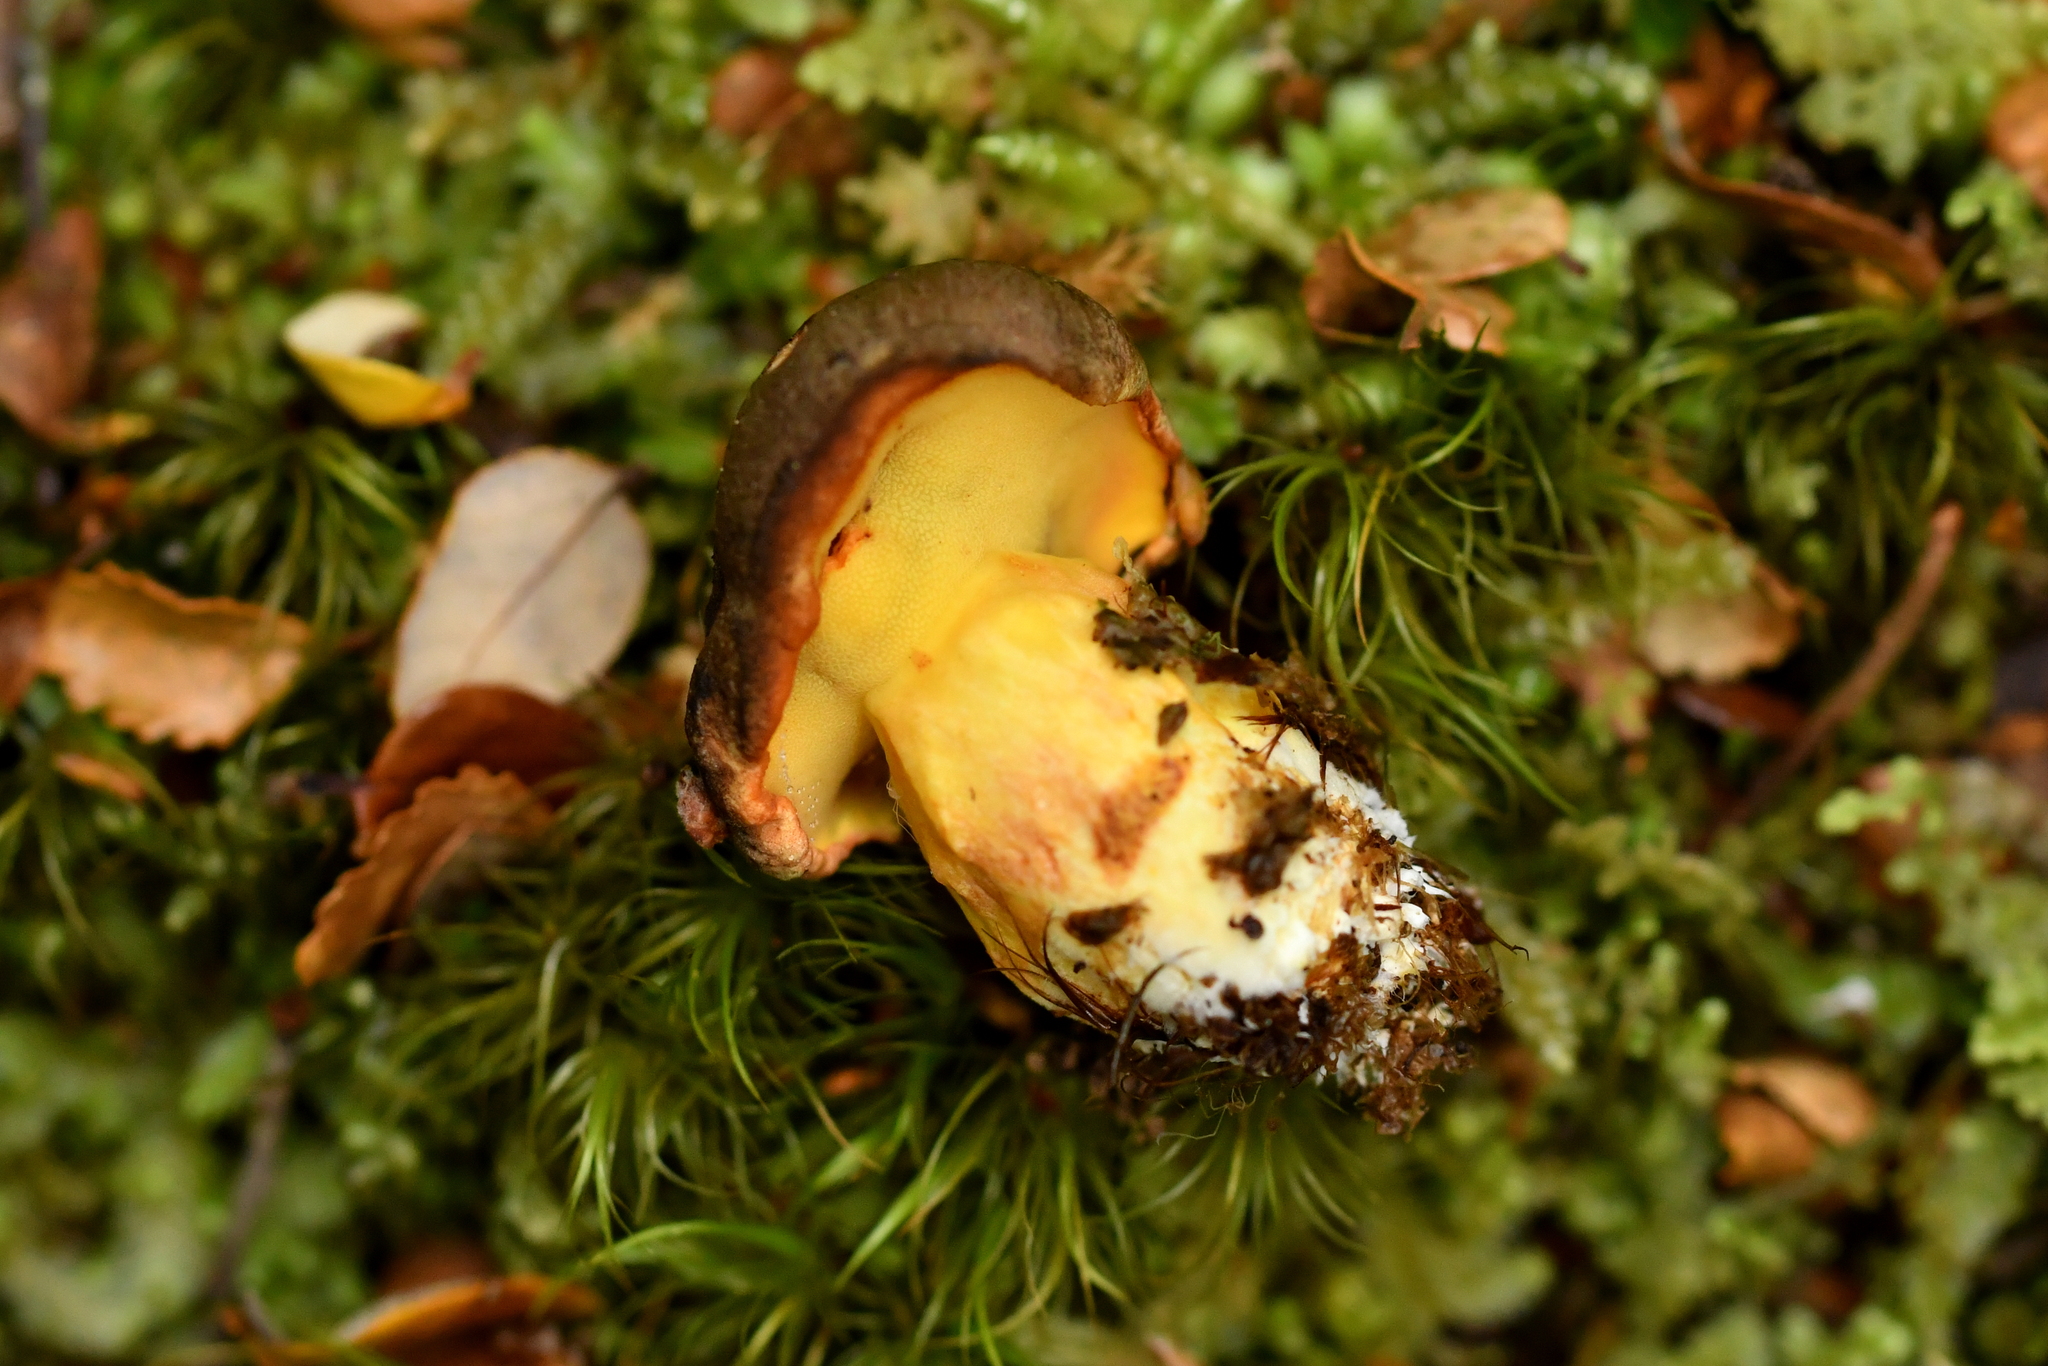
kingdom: Fungi
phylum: Basidiomycota
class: Agaricomycetes
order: Boletales
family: Boletaceae
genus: Xerocomus
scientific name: Xerocomus leptospermi
